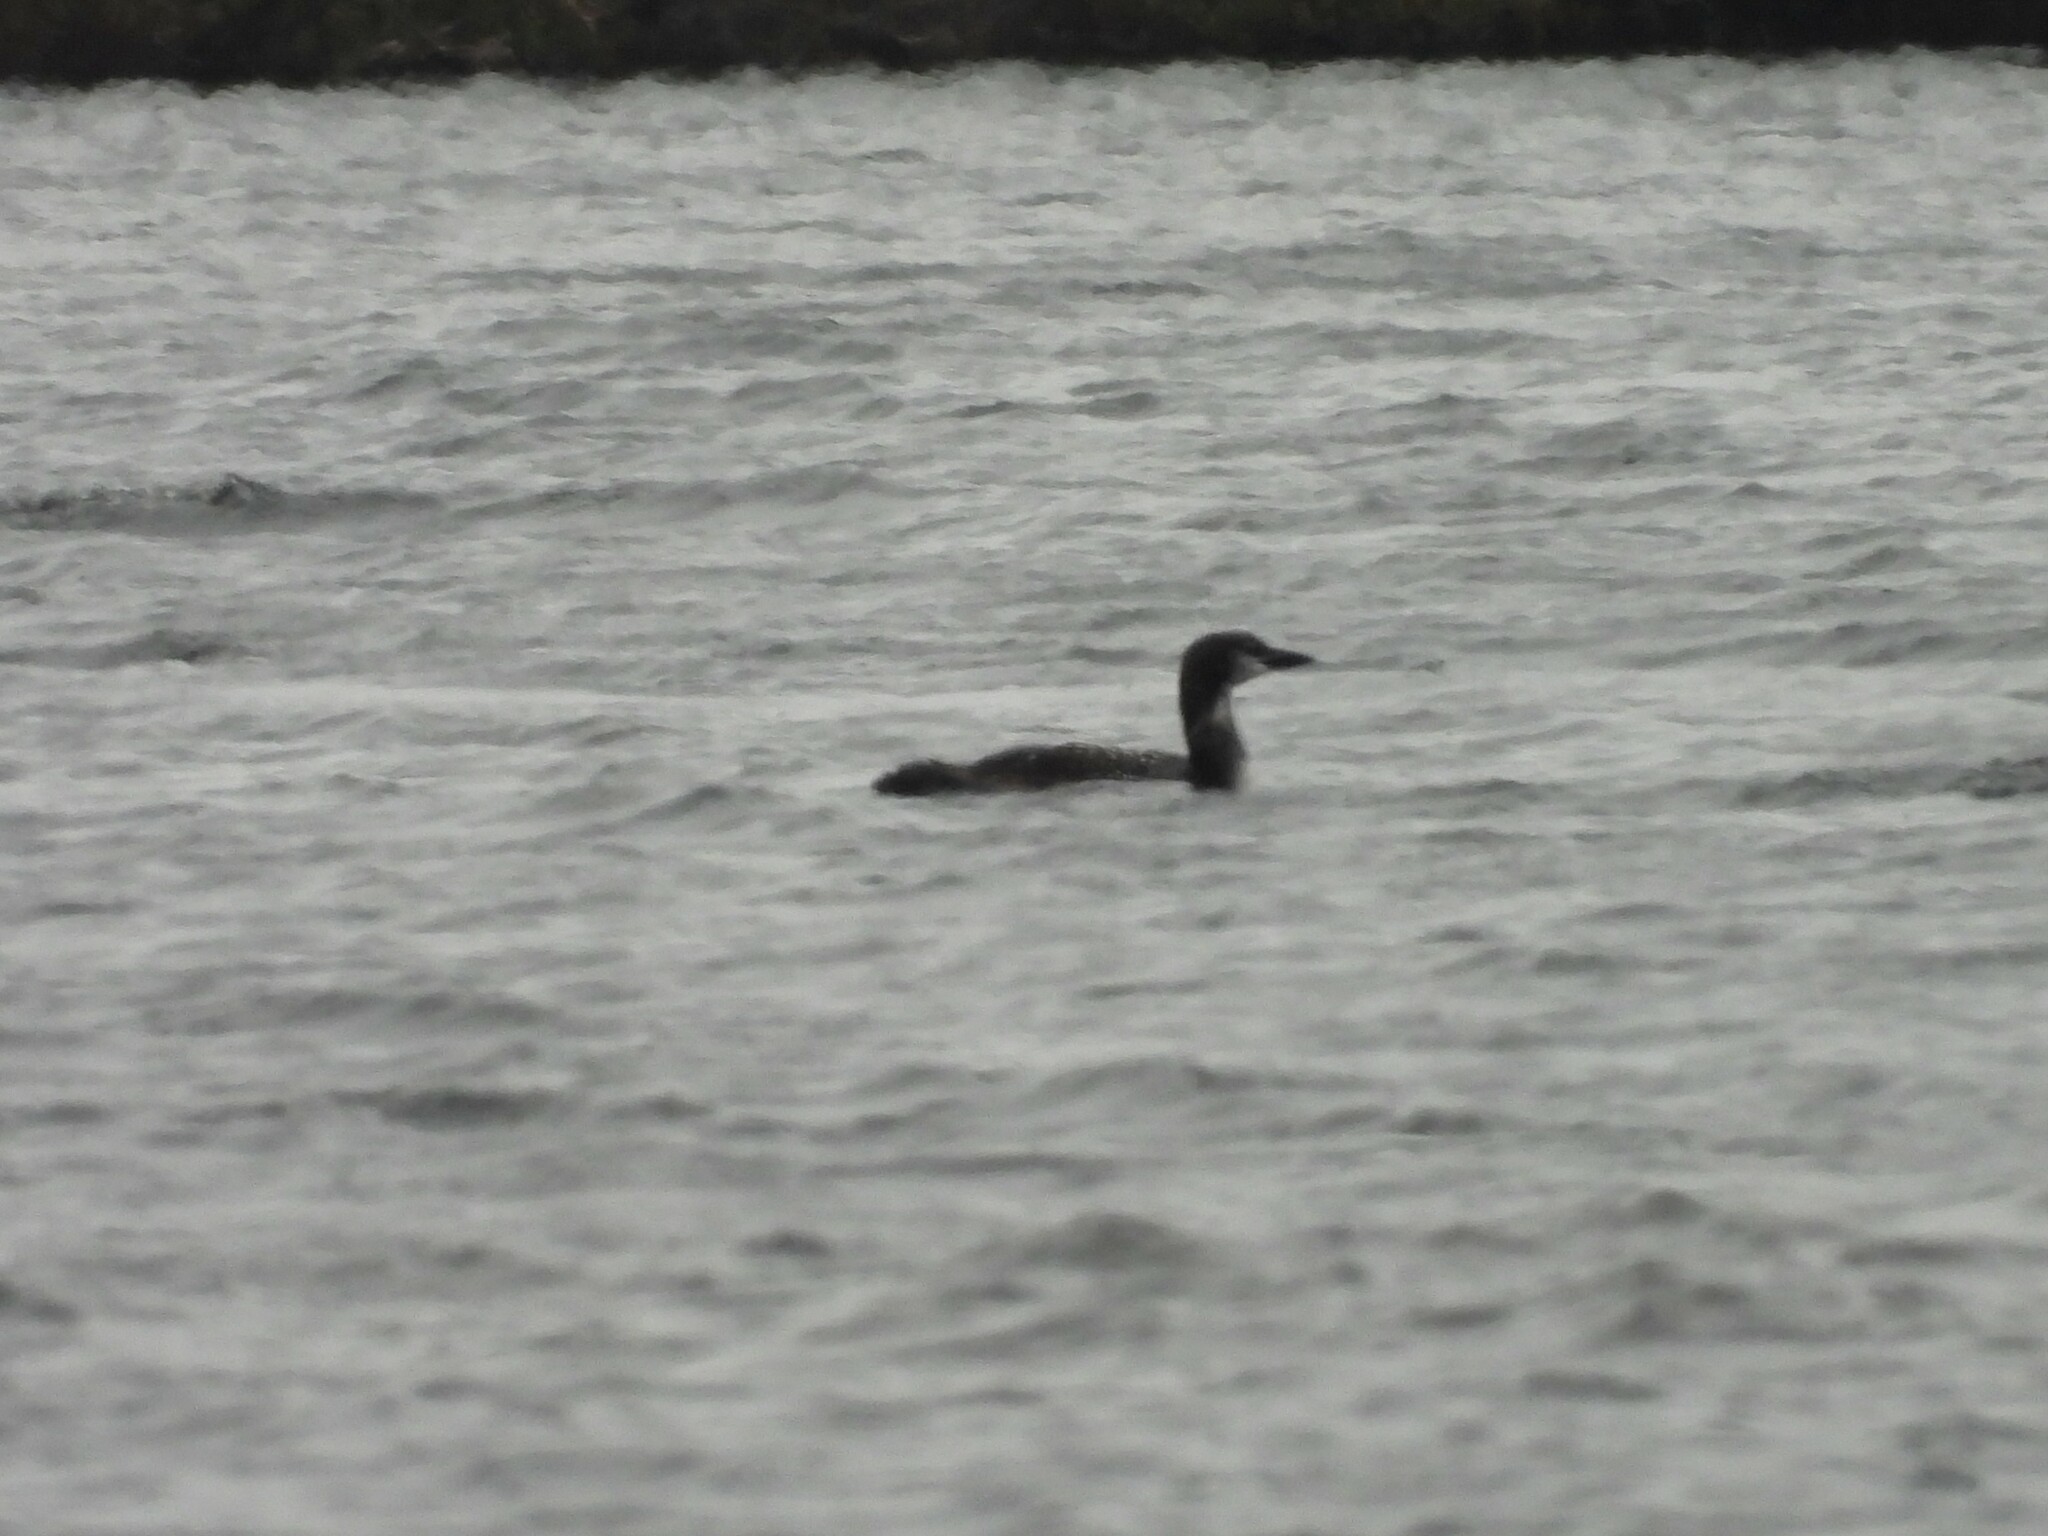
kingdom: Animalia
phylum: Chordata
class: Aves
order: Gaviiformes
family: Gaviidae
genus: Gavia
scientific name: Gavia immer
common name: Common loon
